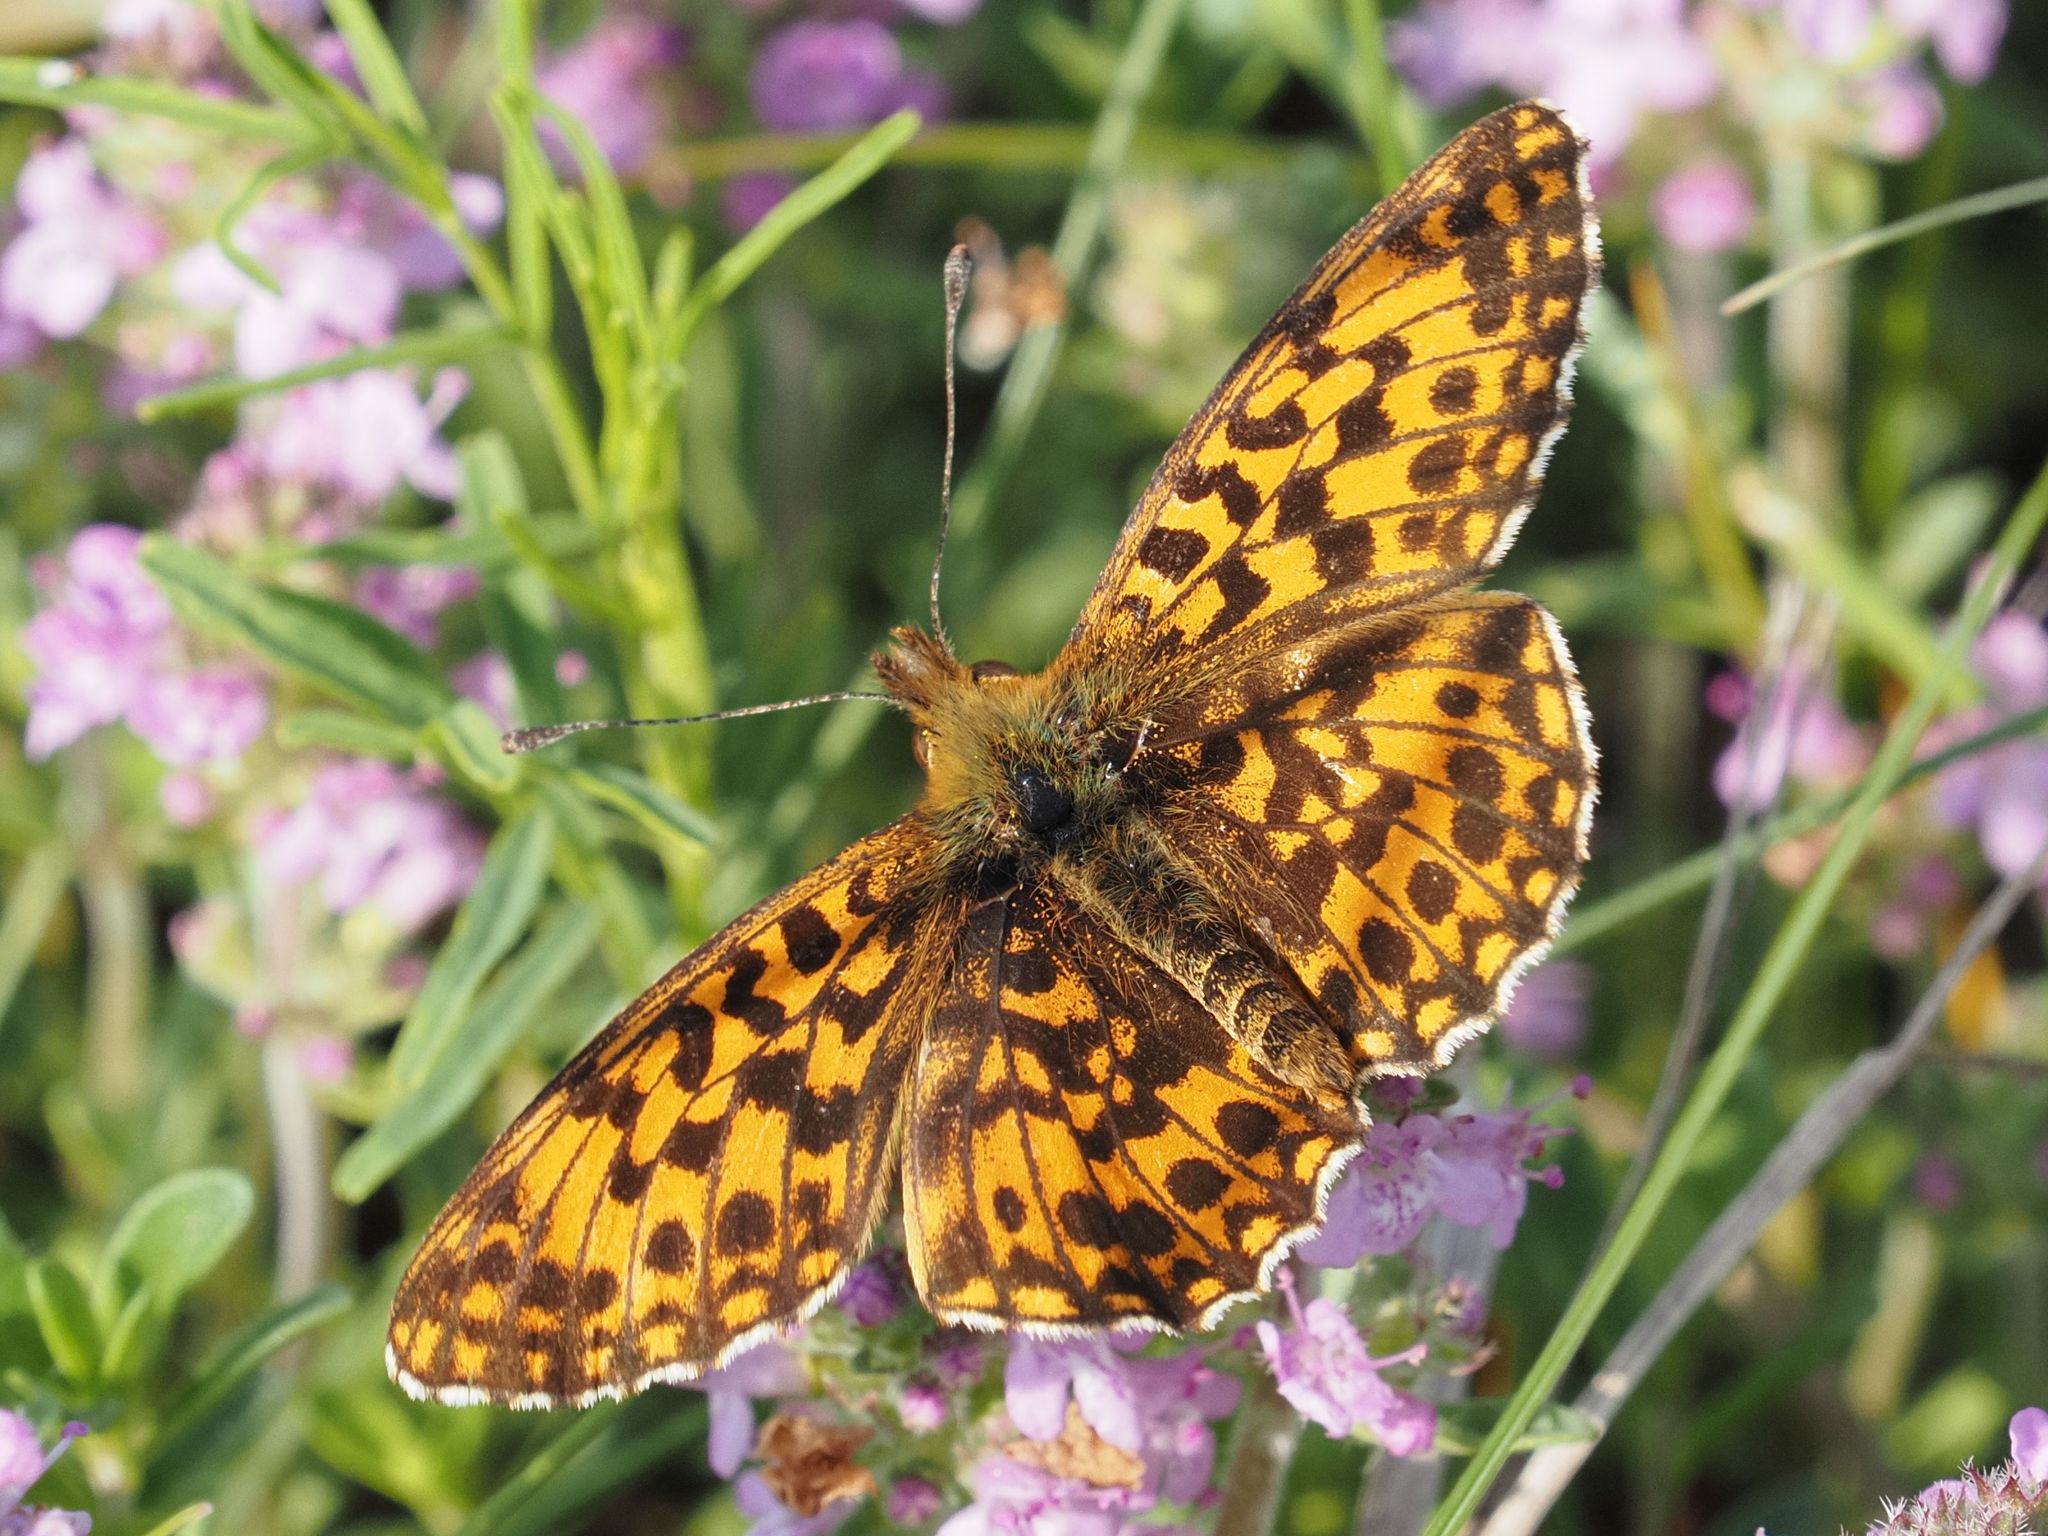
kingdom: Animalia
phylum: Arthropoda
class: Insecta
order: Lepidoptera
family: Nymphalidae
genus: Boloria
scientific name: Boloria dia
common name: Weaver's fritillary
